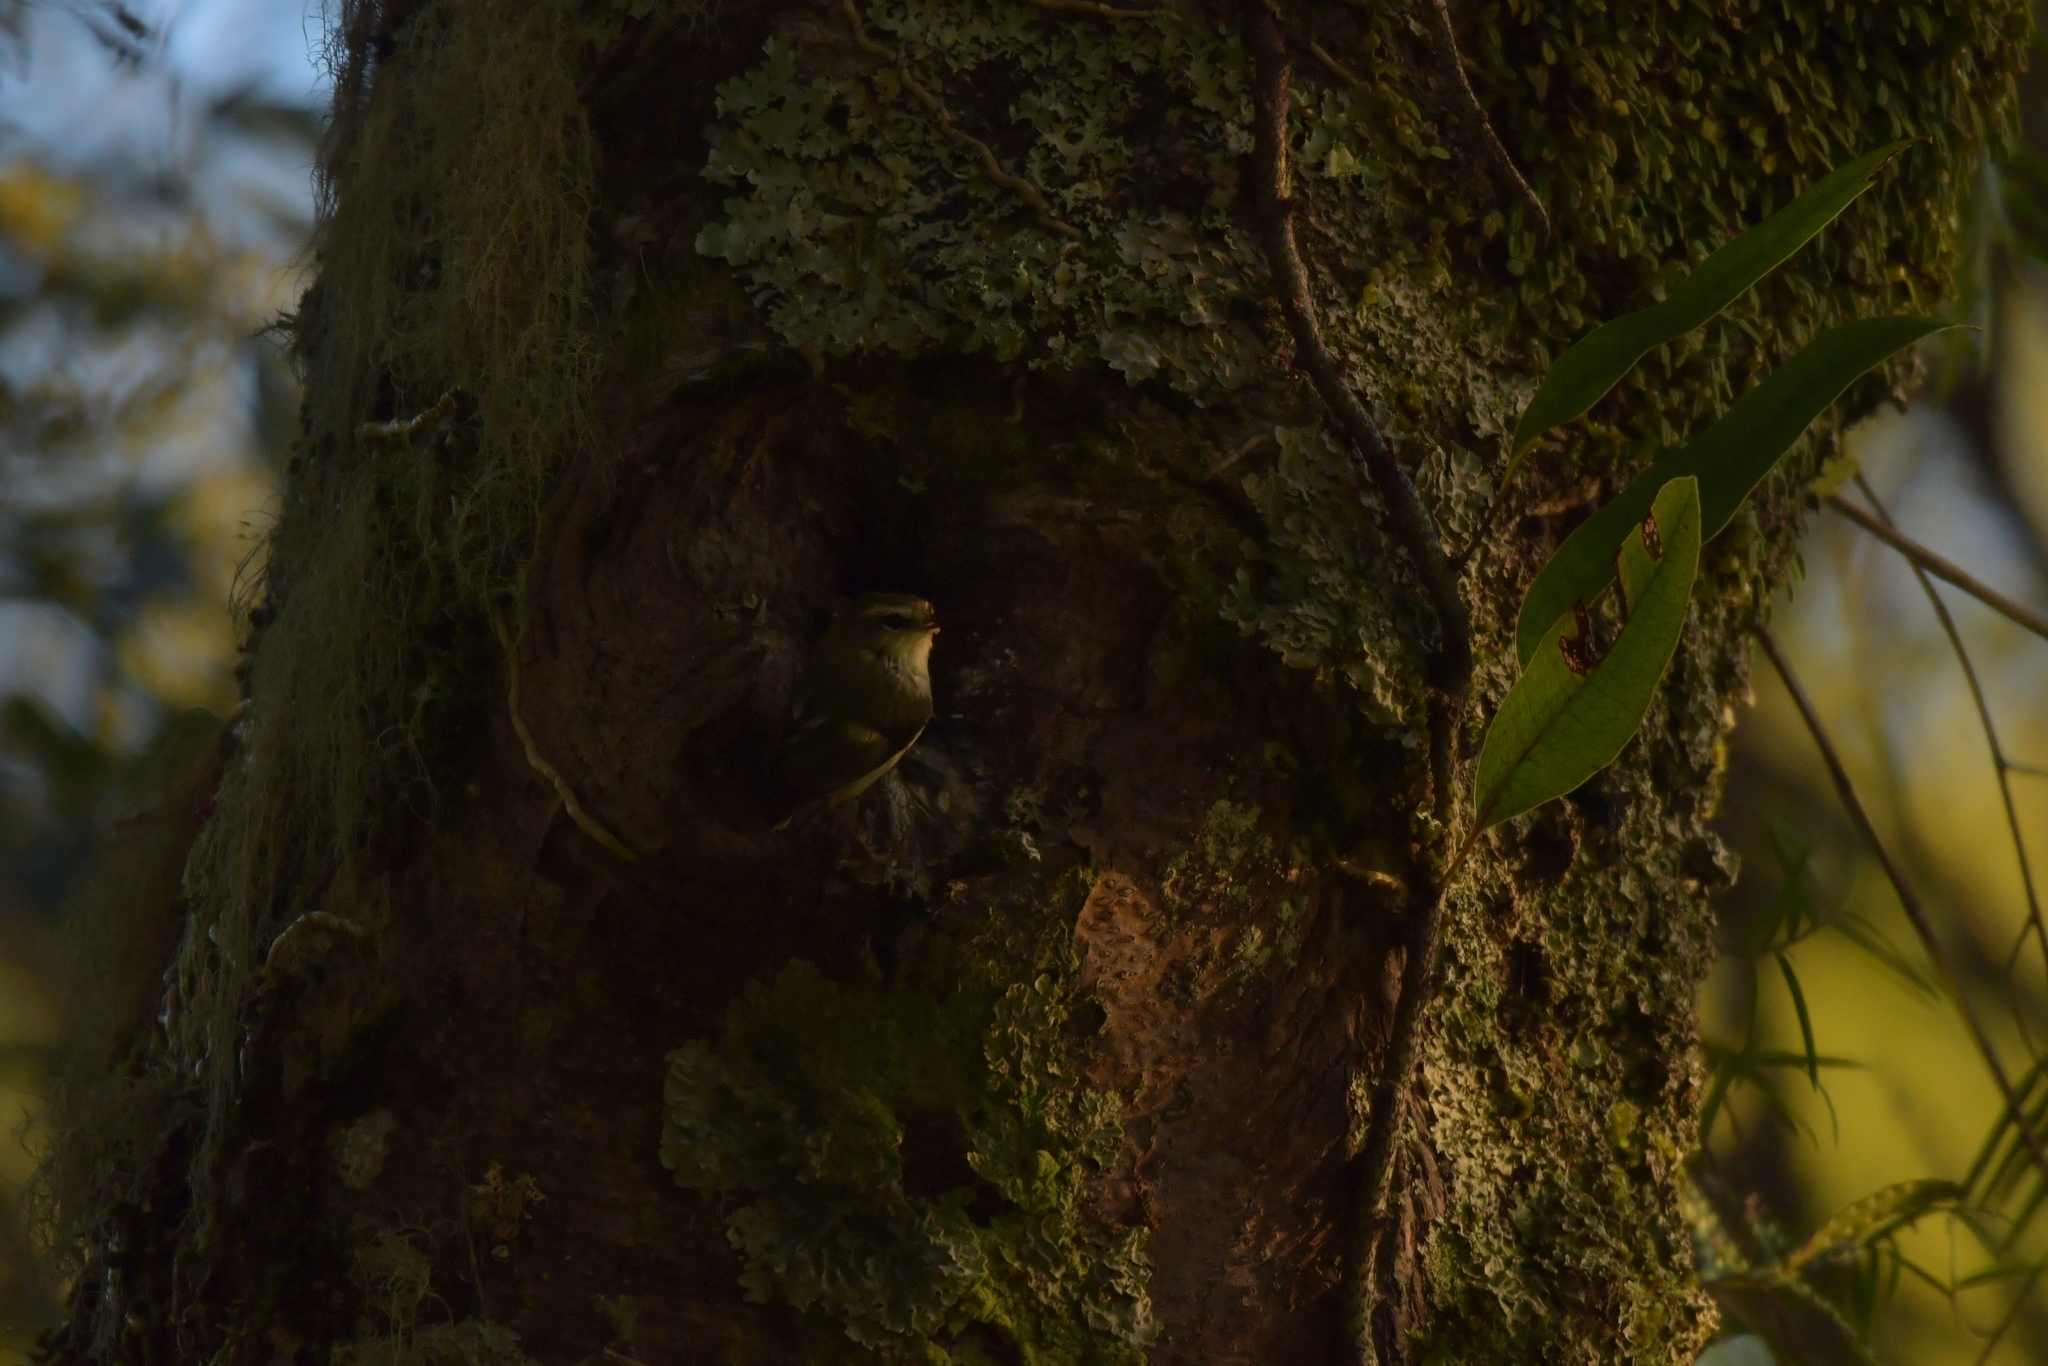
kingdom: Animalia
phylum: Chordata
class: Aves
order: Passeriformes
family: Acanthisittidae
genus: Acanthisitta
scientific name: Acanthisitta chloris
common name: Rifleman
